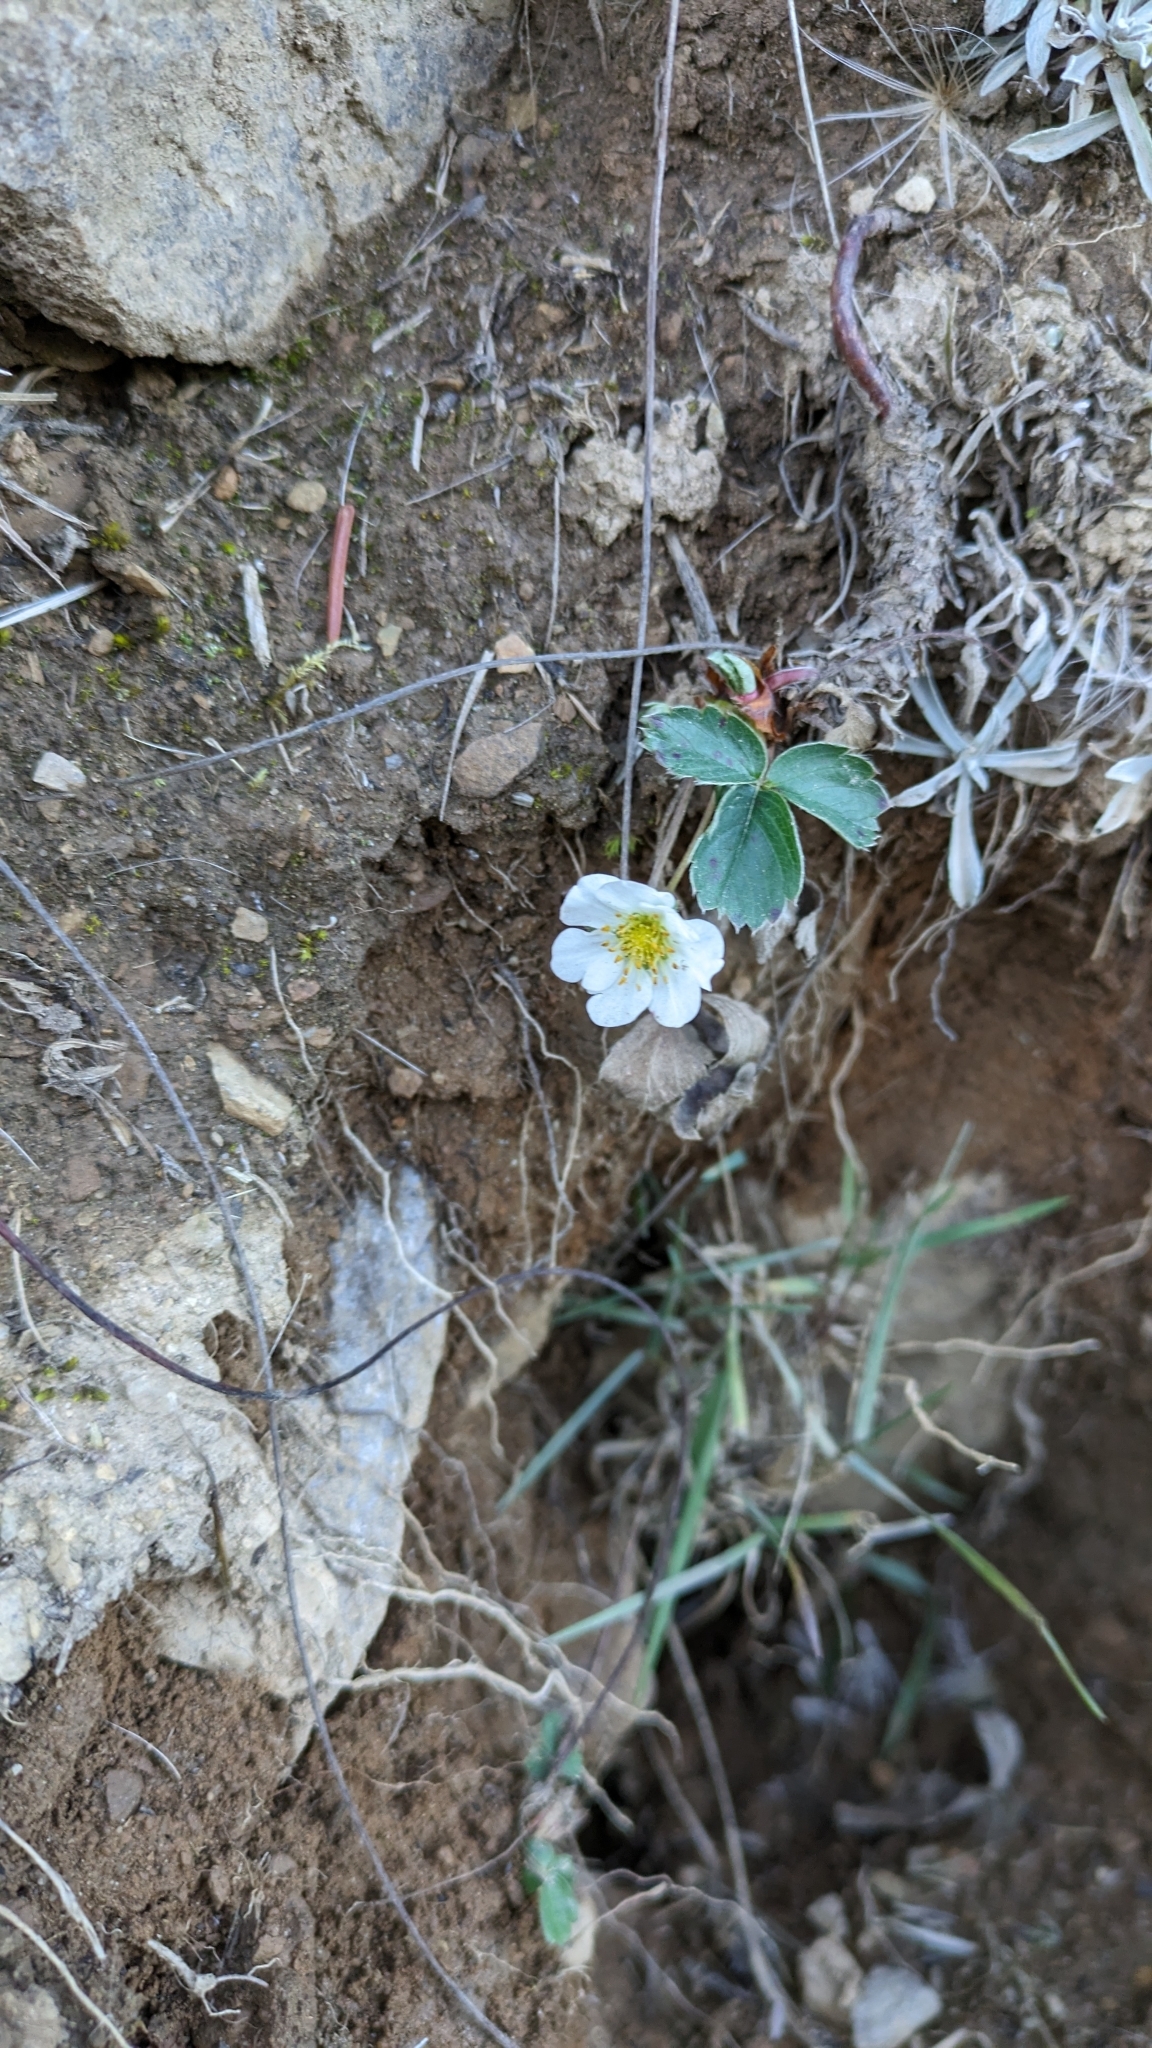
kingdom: Plantae
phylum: Tracheophyta
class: Magnoliopsida
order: Rosales
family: Rosaceae
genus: Fragaria
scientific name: Fragaria virginiana
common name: Thickleaved wild strawberry
